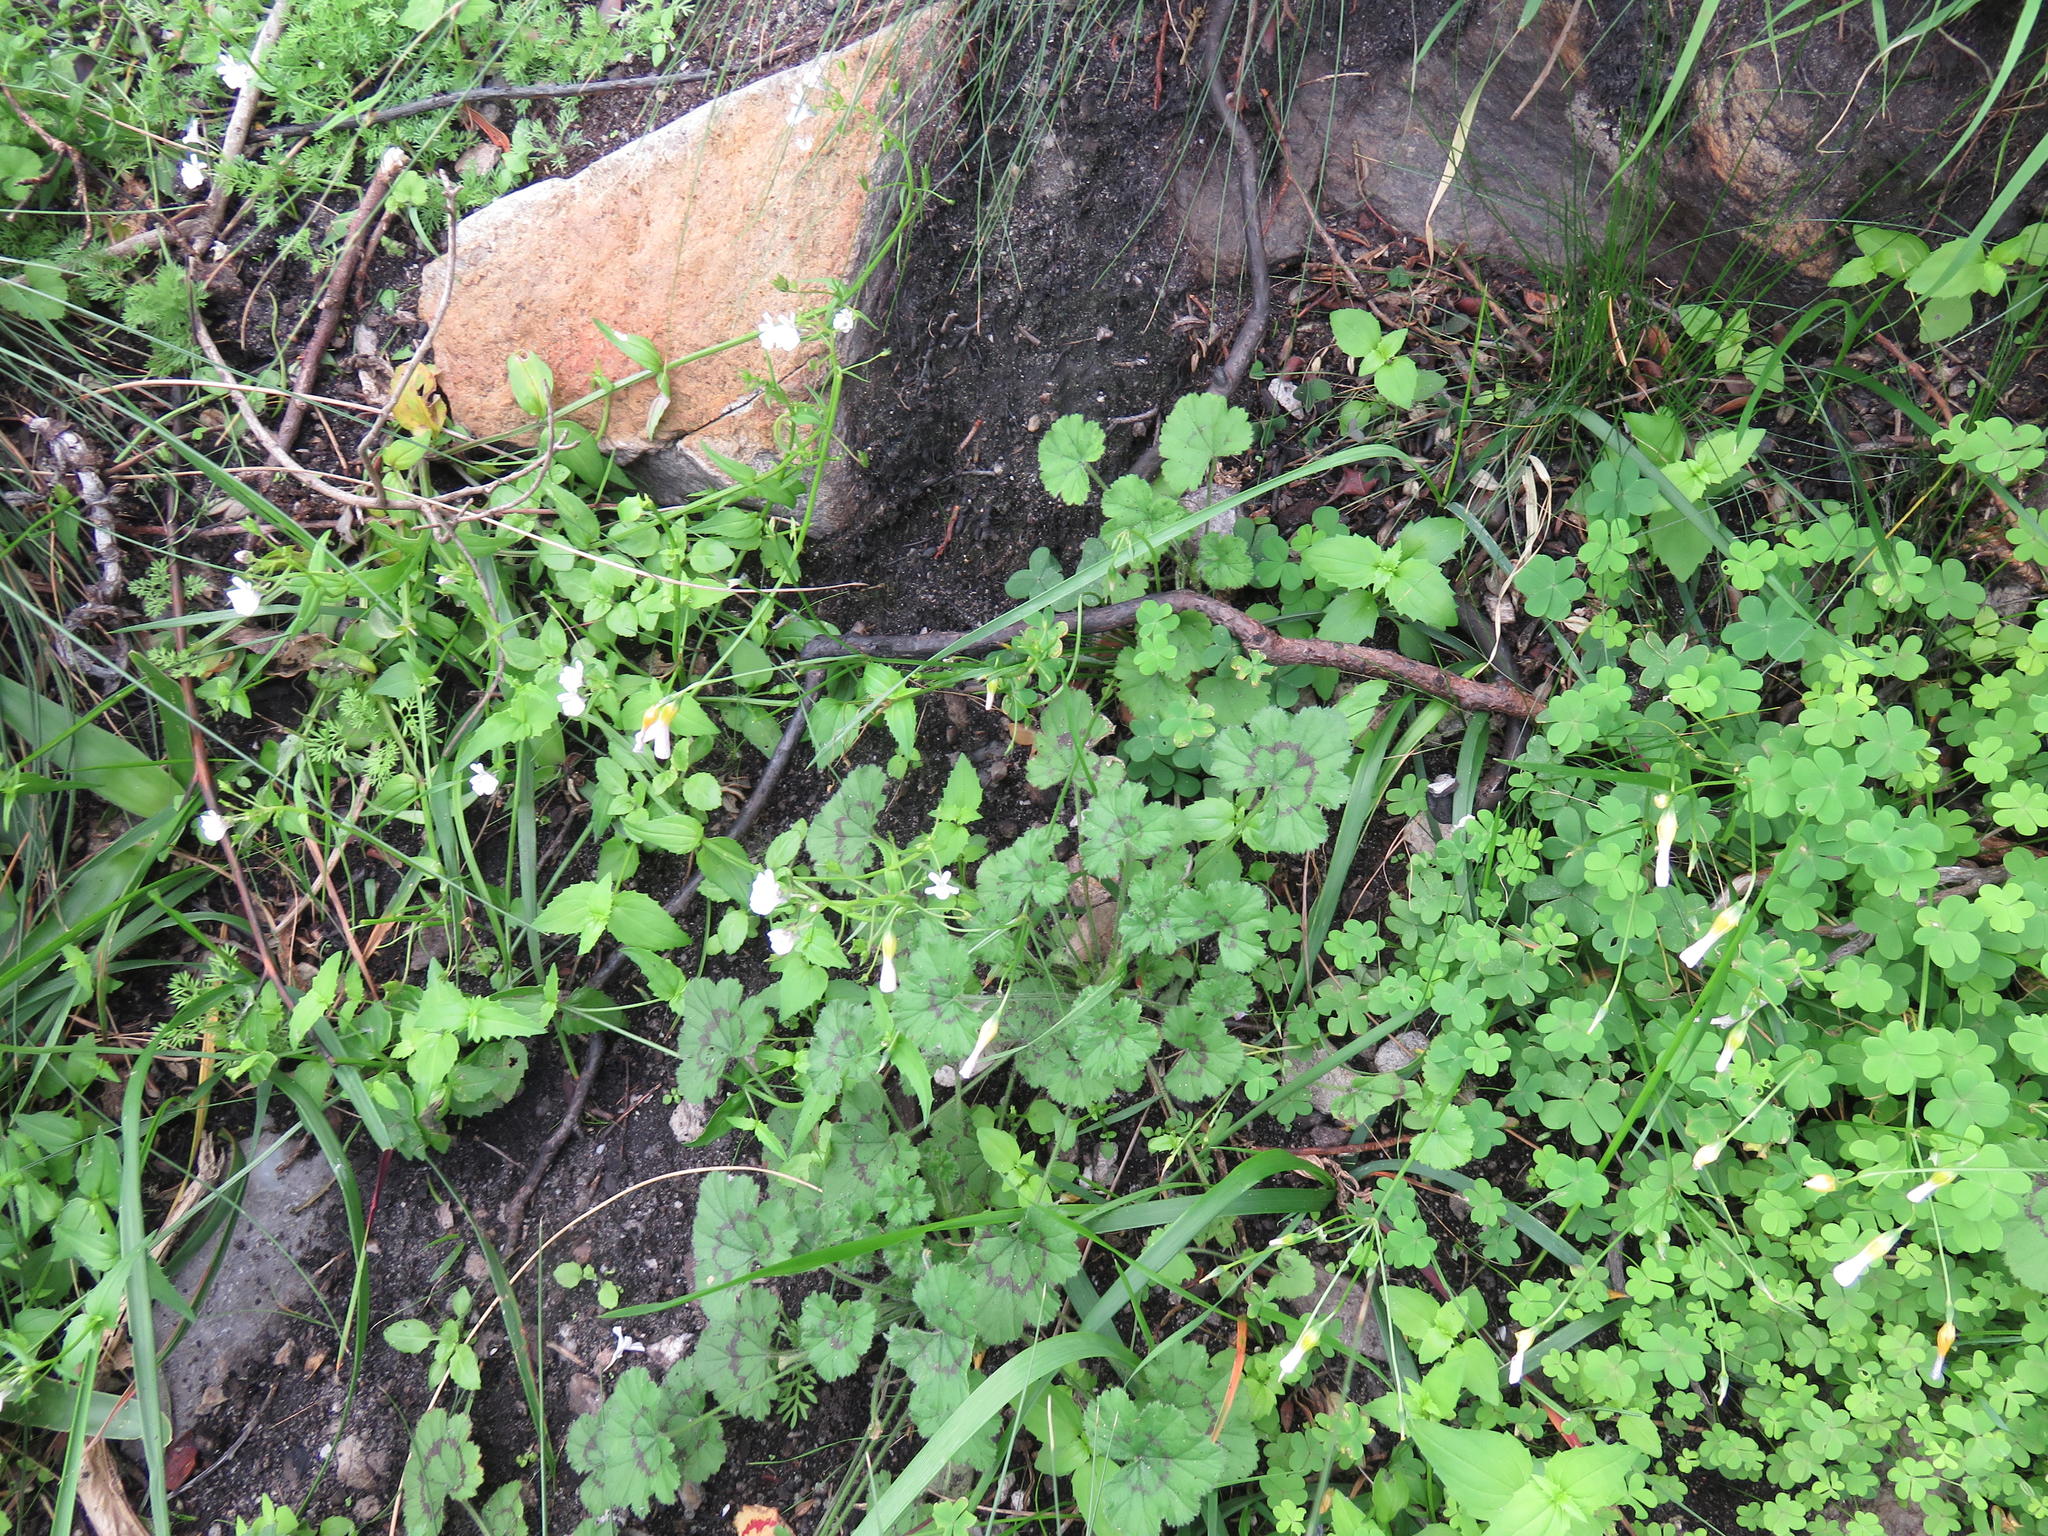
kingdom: Plantae
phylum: Tracheophyta
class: Magnoliopsida
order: Oxalidales
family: Oxalidaceae
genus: Oxalis
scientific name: Oxalis caprina
